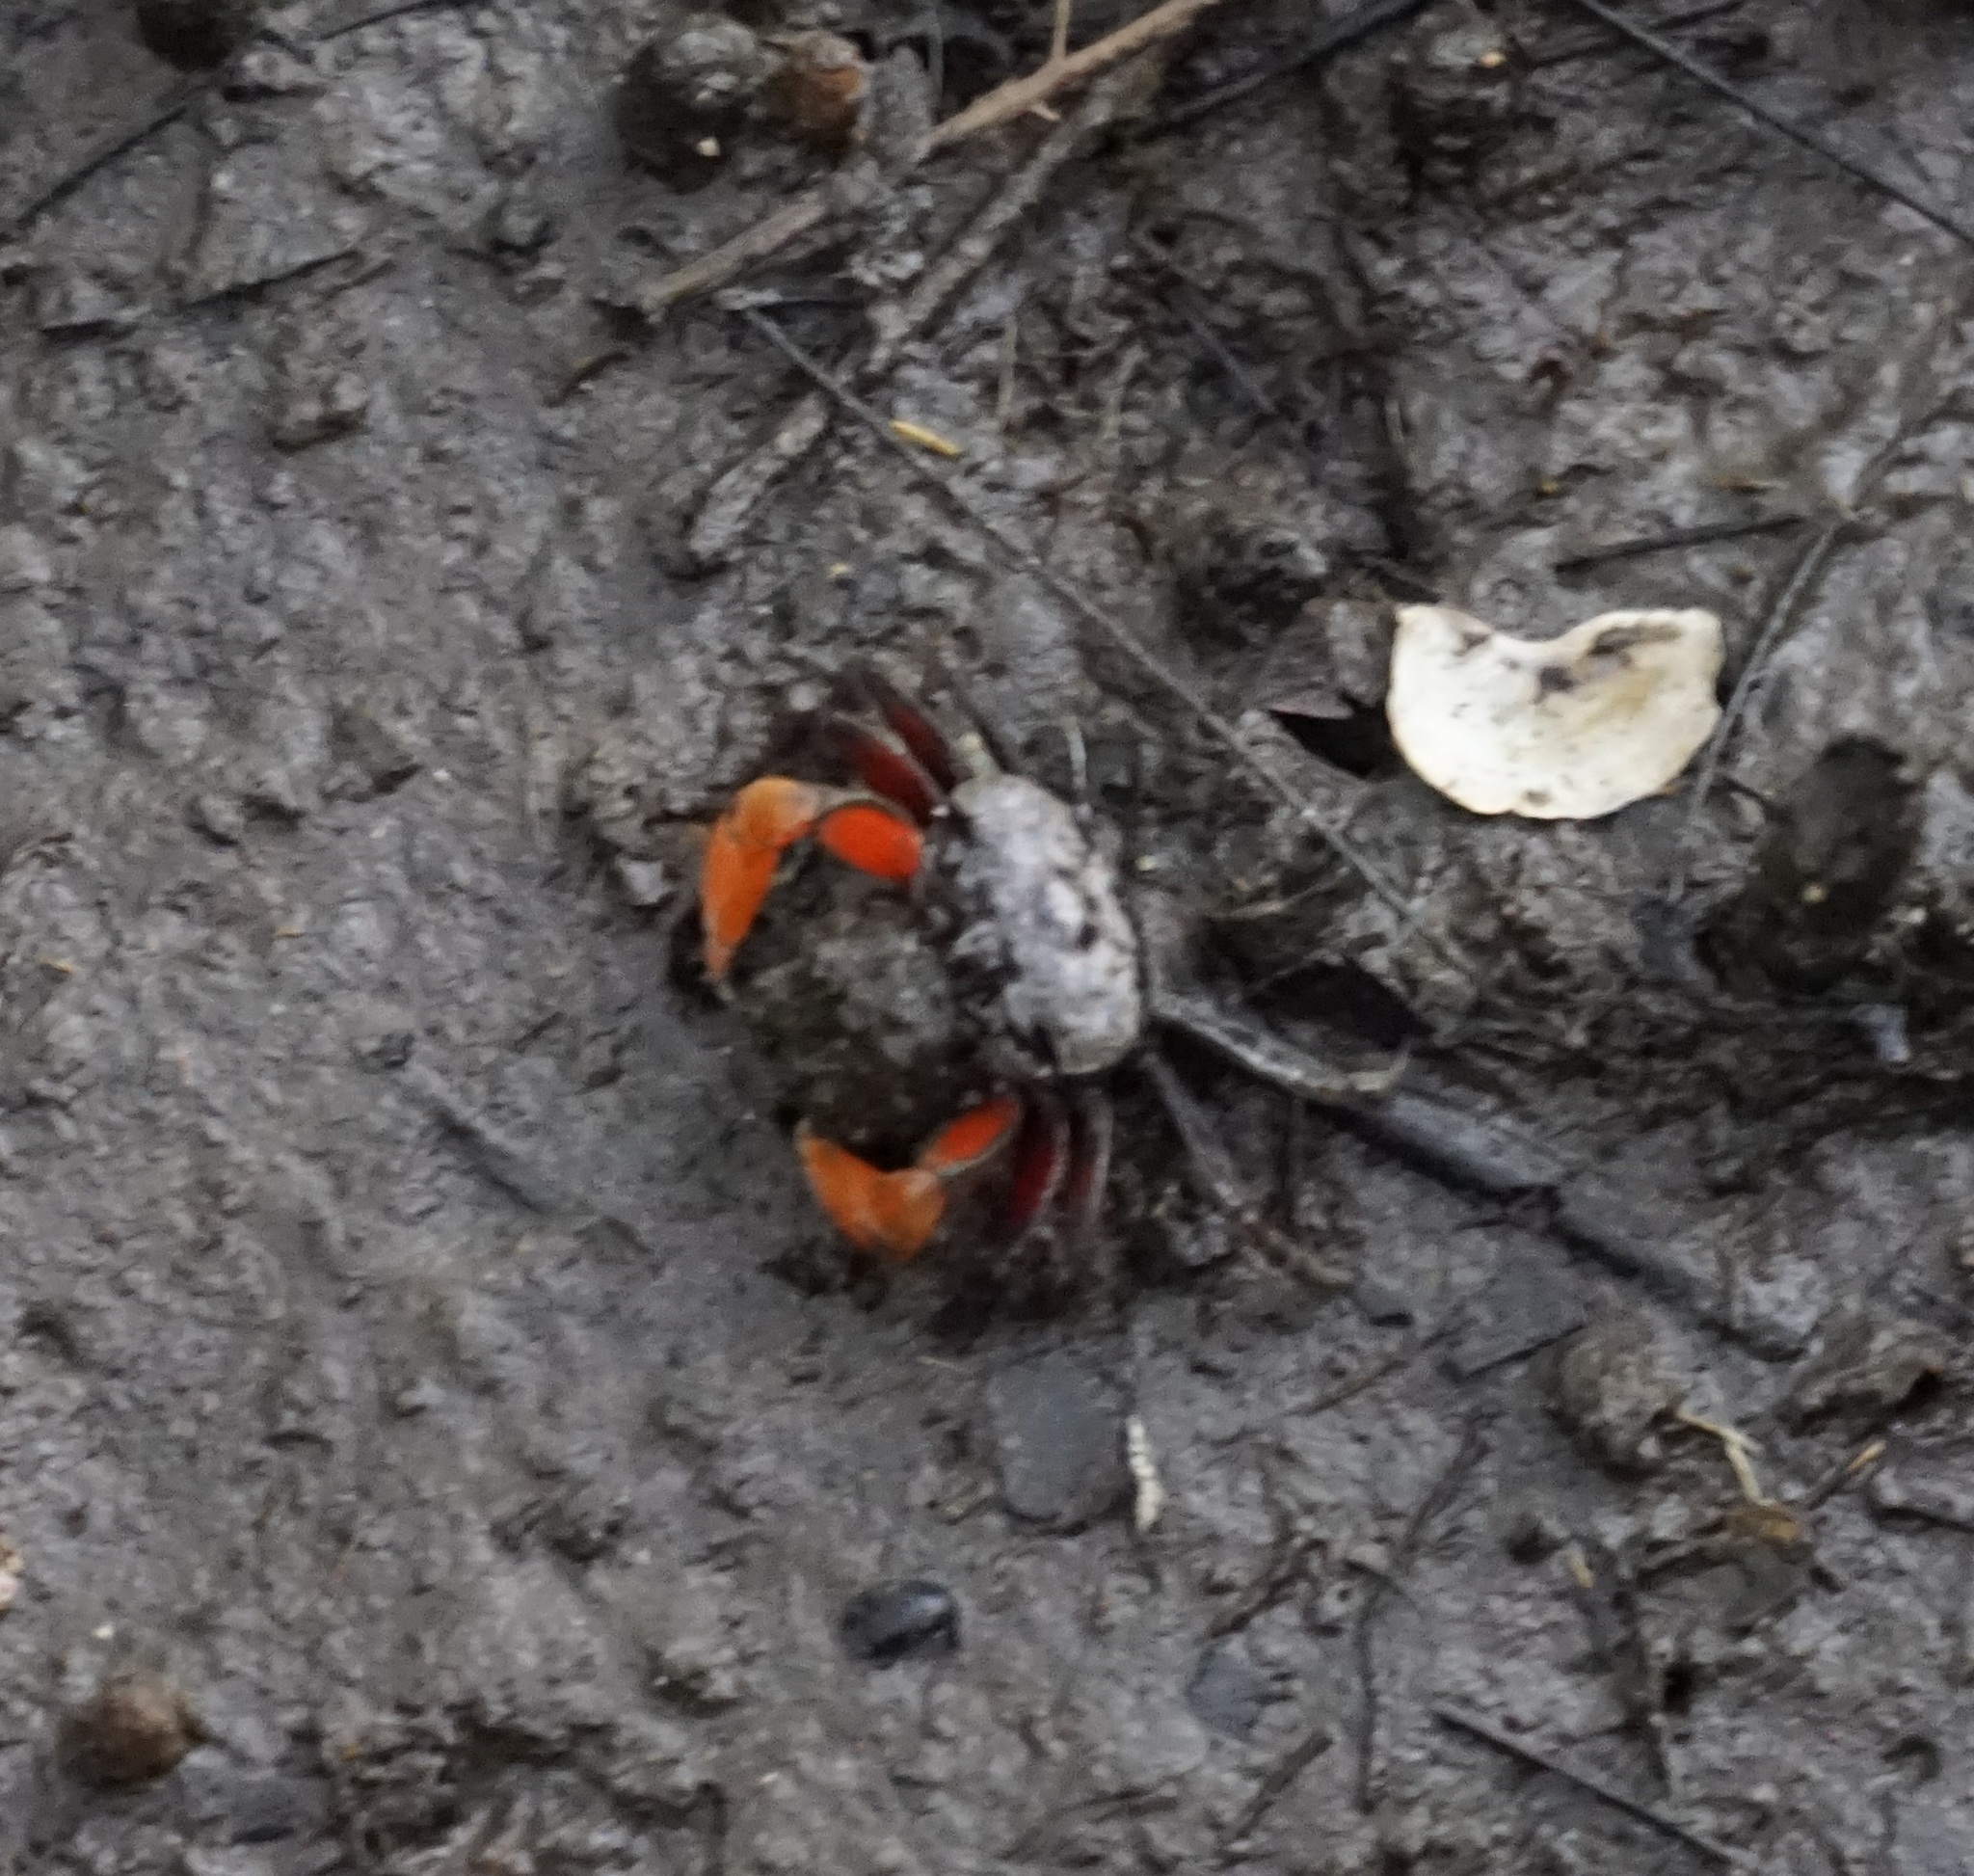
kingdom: Animalia
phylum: Arthropoda
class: Malacostraca
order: Decapoda
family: Heloeciidae
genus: Heloecius
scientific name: Heloecius cordiformis
